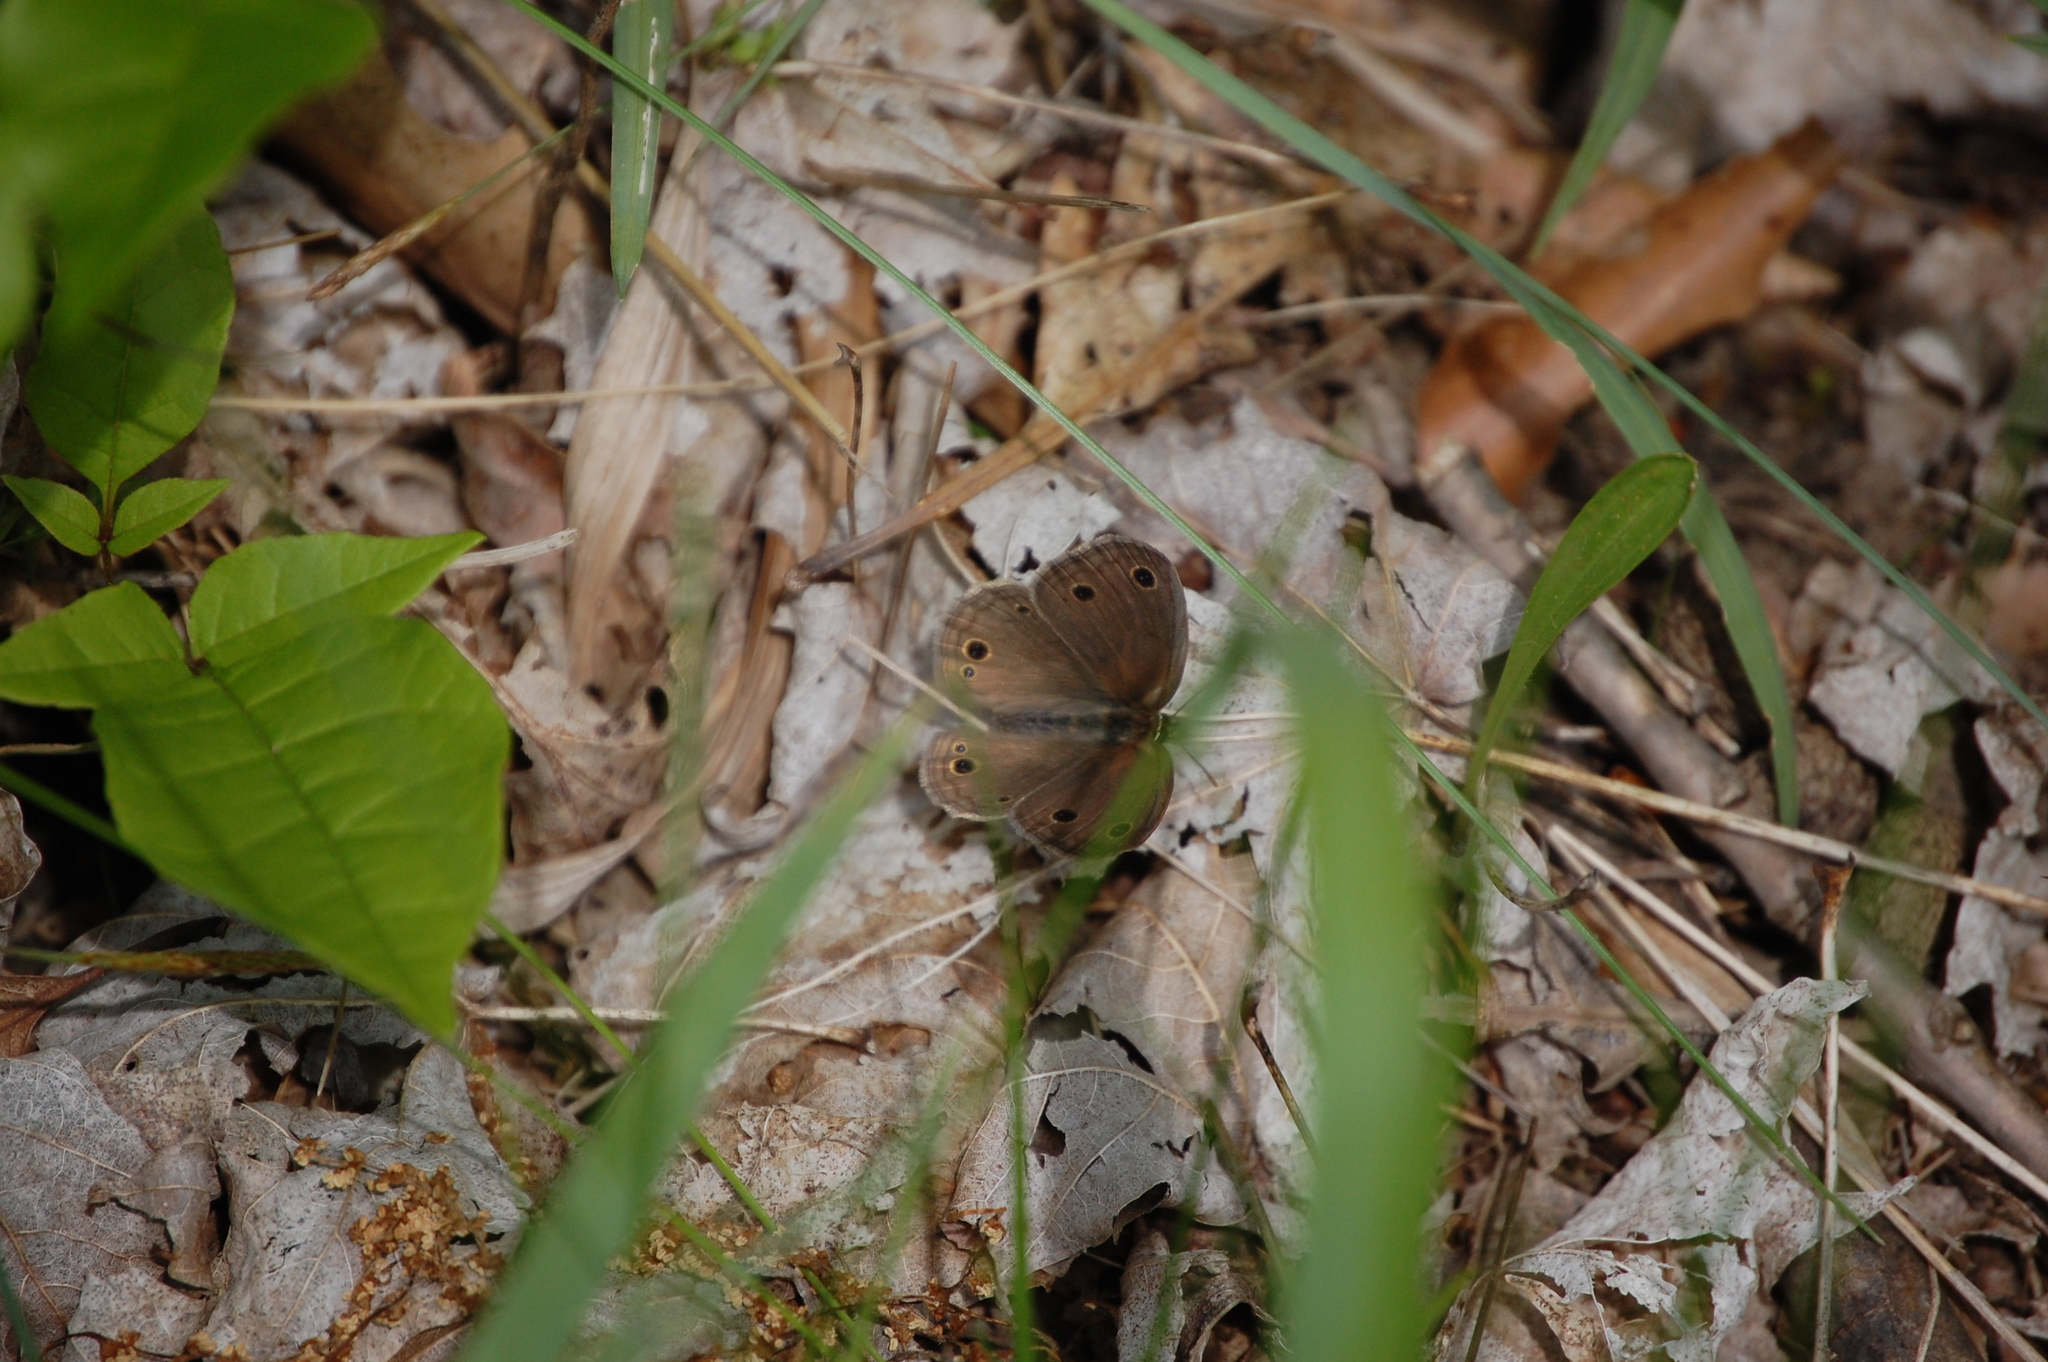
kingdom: Animalia
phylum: Arthropoda
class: Insecta
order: Lepidoptera
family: Nymphalidae
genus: Euptychia
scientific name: Euptychia cymela
